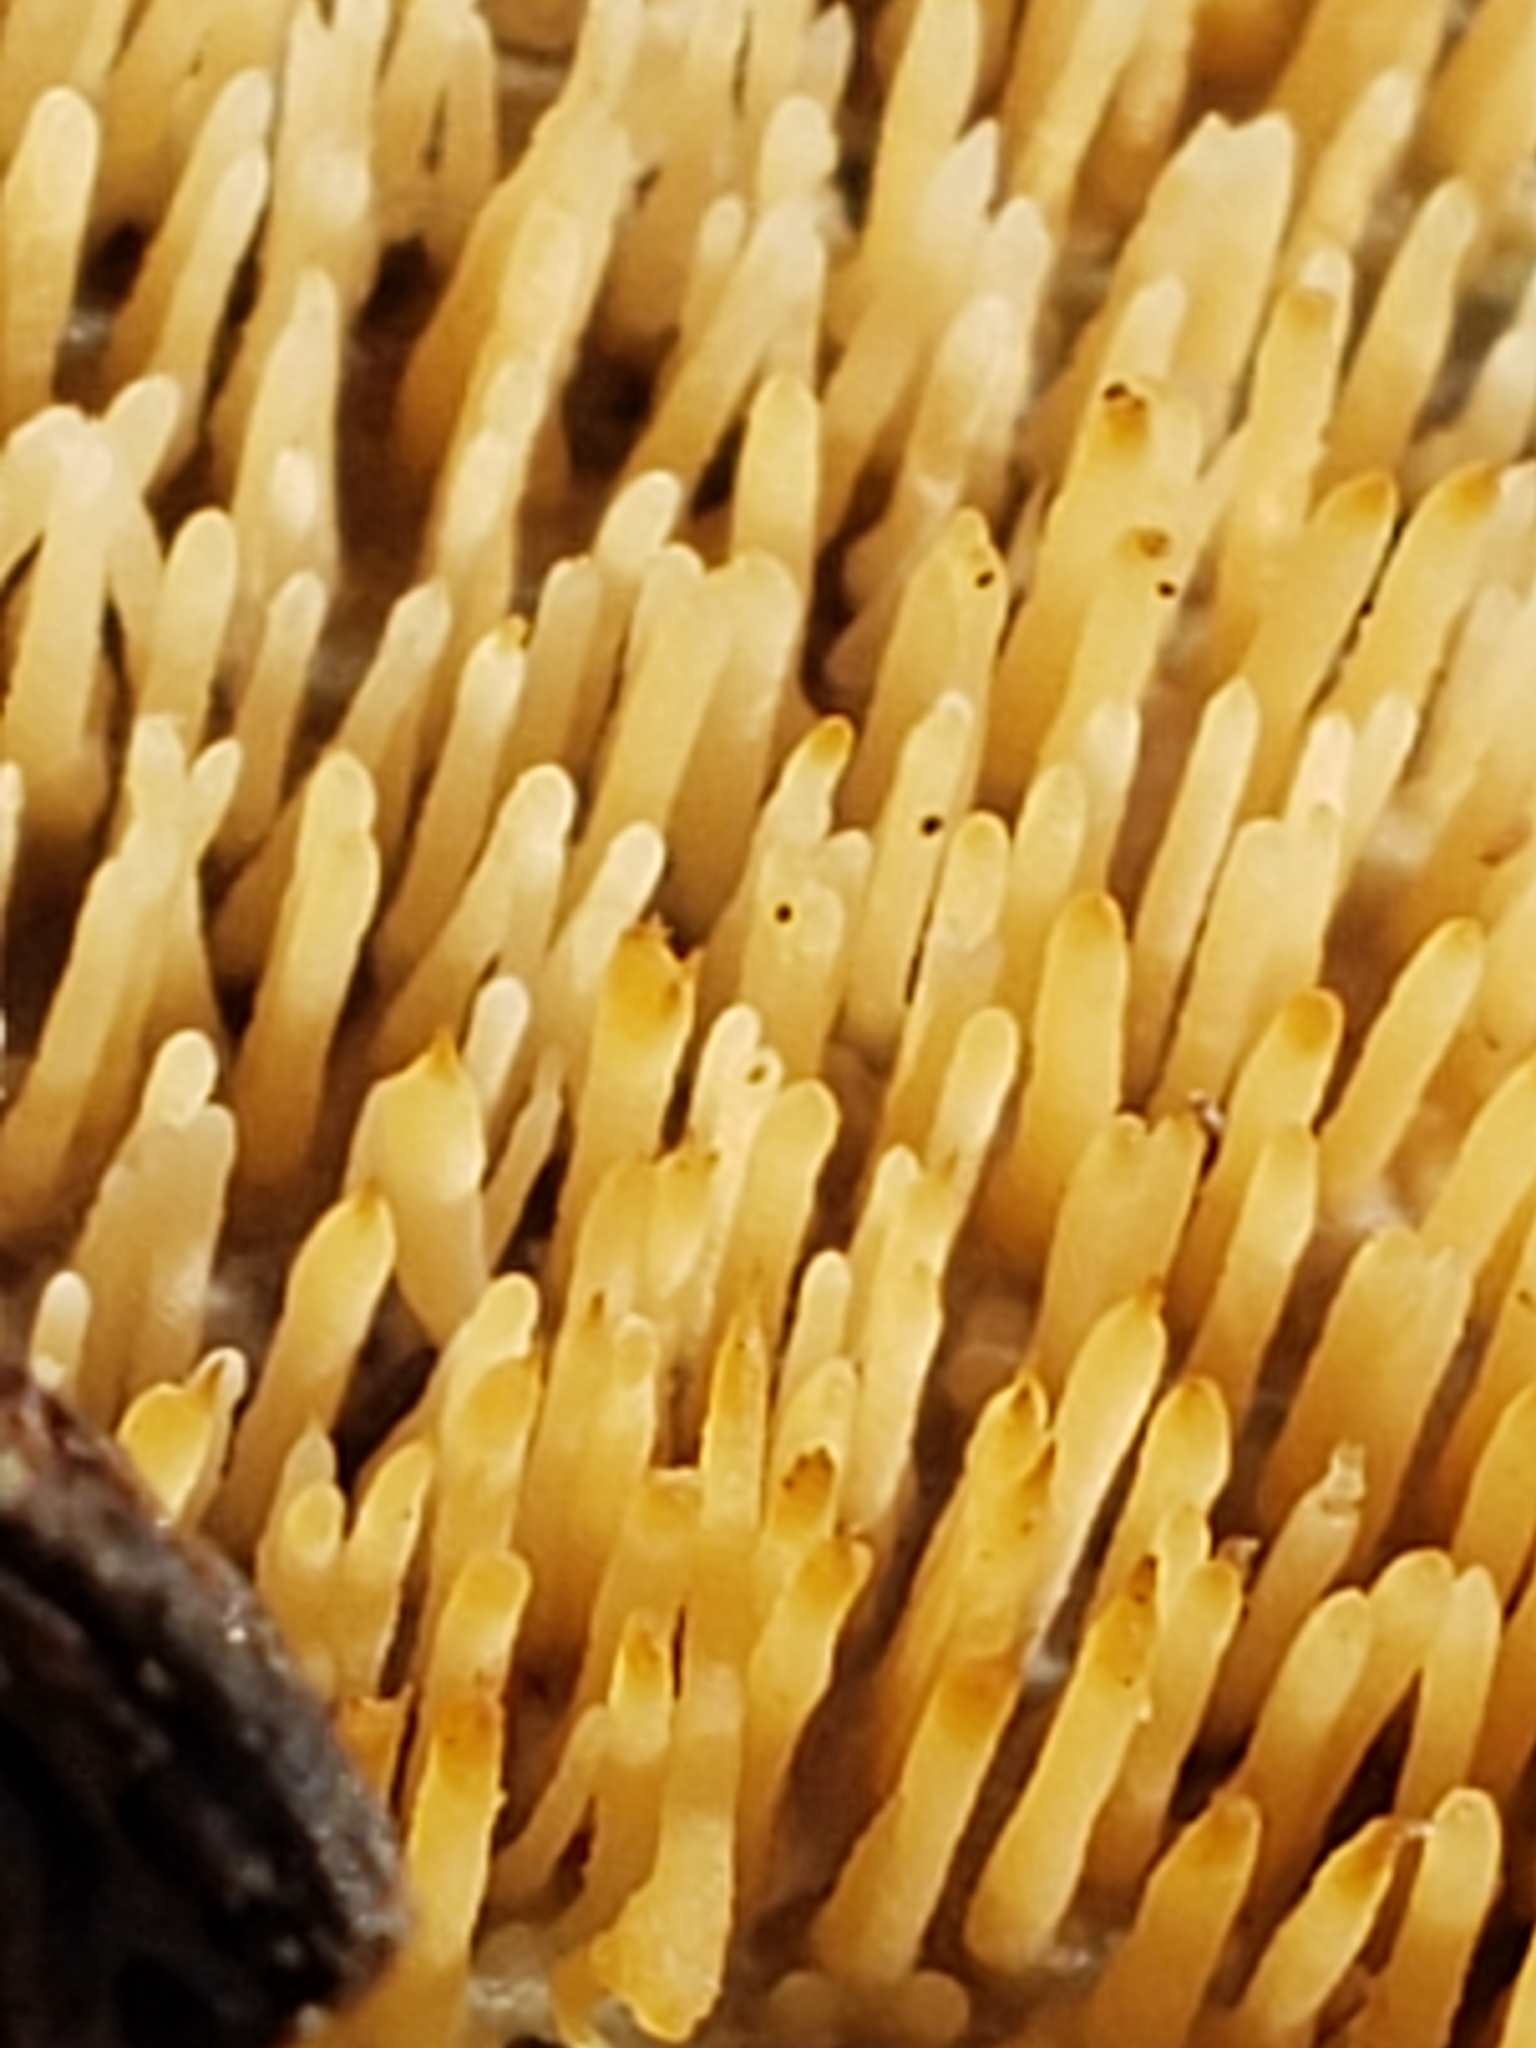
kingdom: Fungi
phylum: Basidiomycota
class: Agaricomycetes
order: Agaricales
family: Radulomycetaceae
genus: Radulomyces
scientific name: Radulomyces copelandii
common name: Asian beauty
